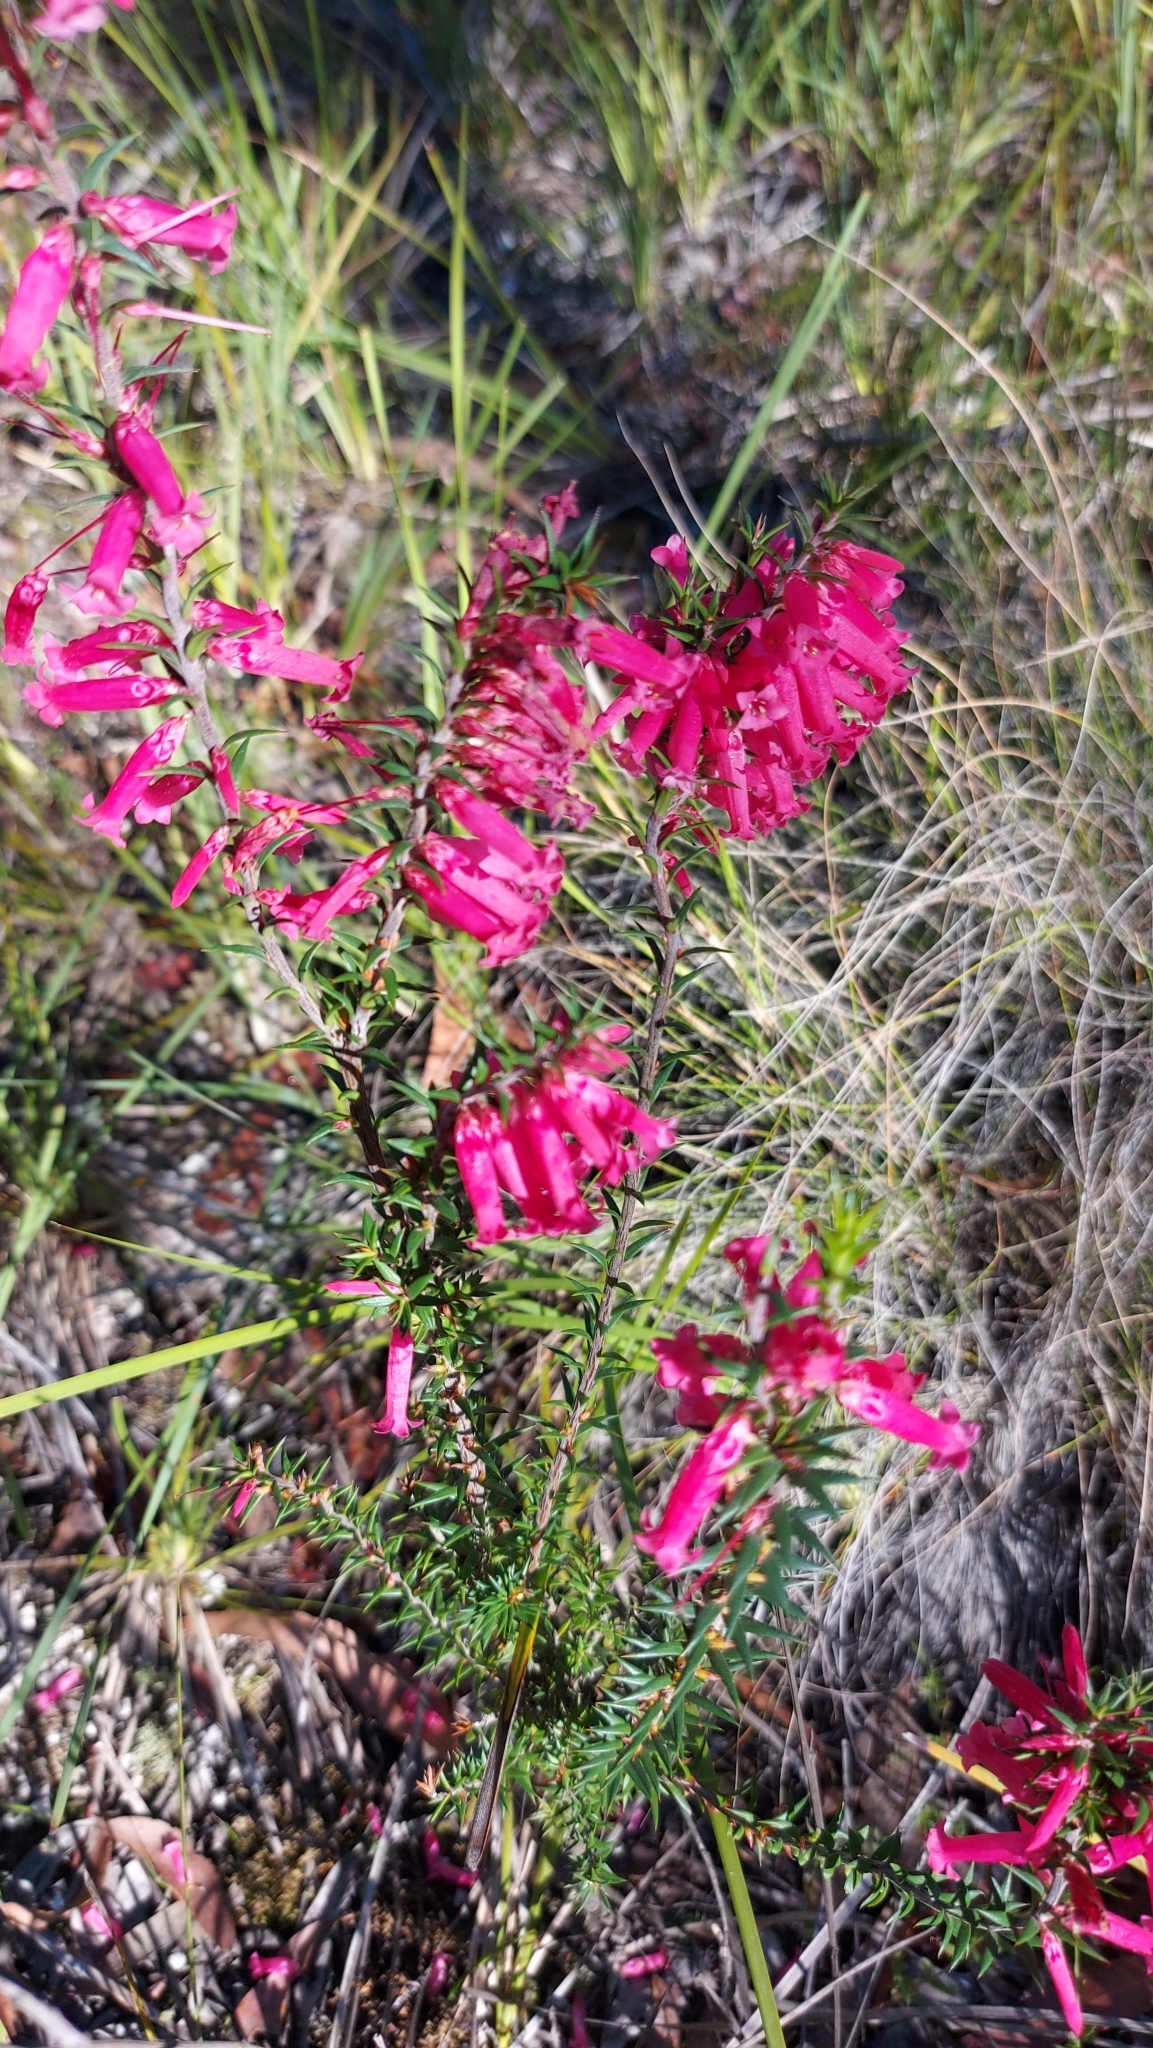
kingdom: Plantae
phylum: Tracheophyta
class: Magnoliopsida
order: Ericales
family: Ericaceae
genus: Epacris
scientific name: Epacris impressa
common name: Common-heath
